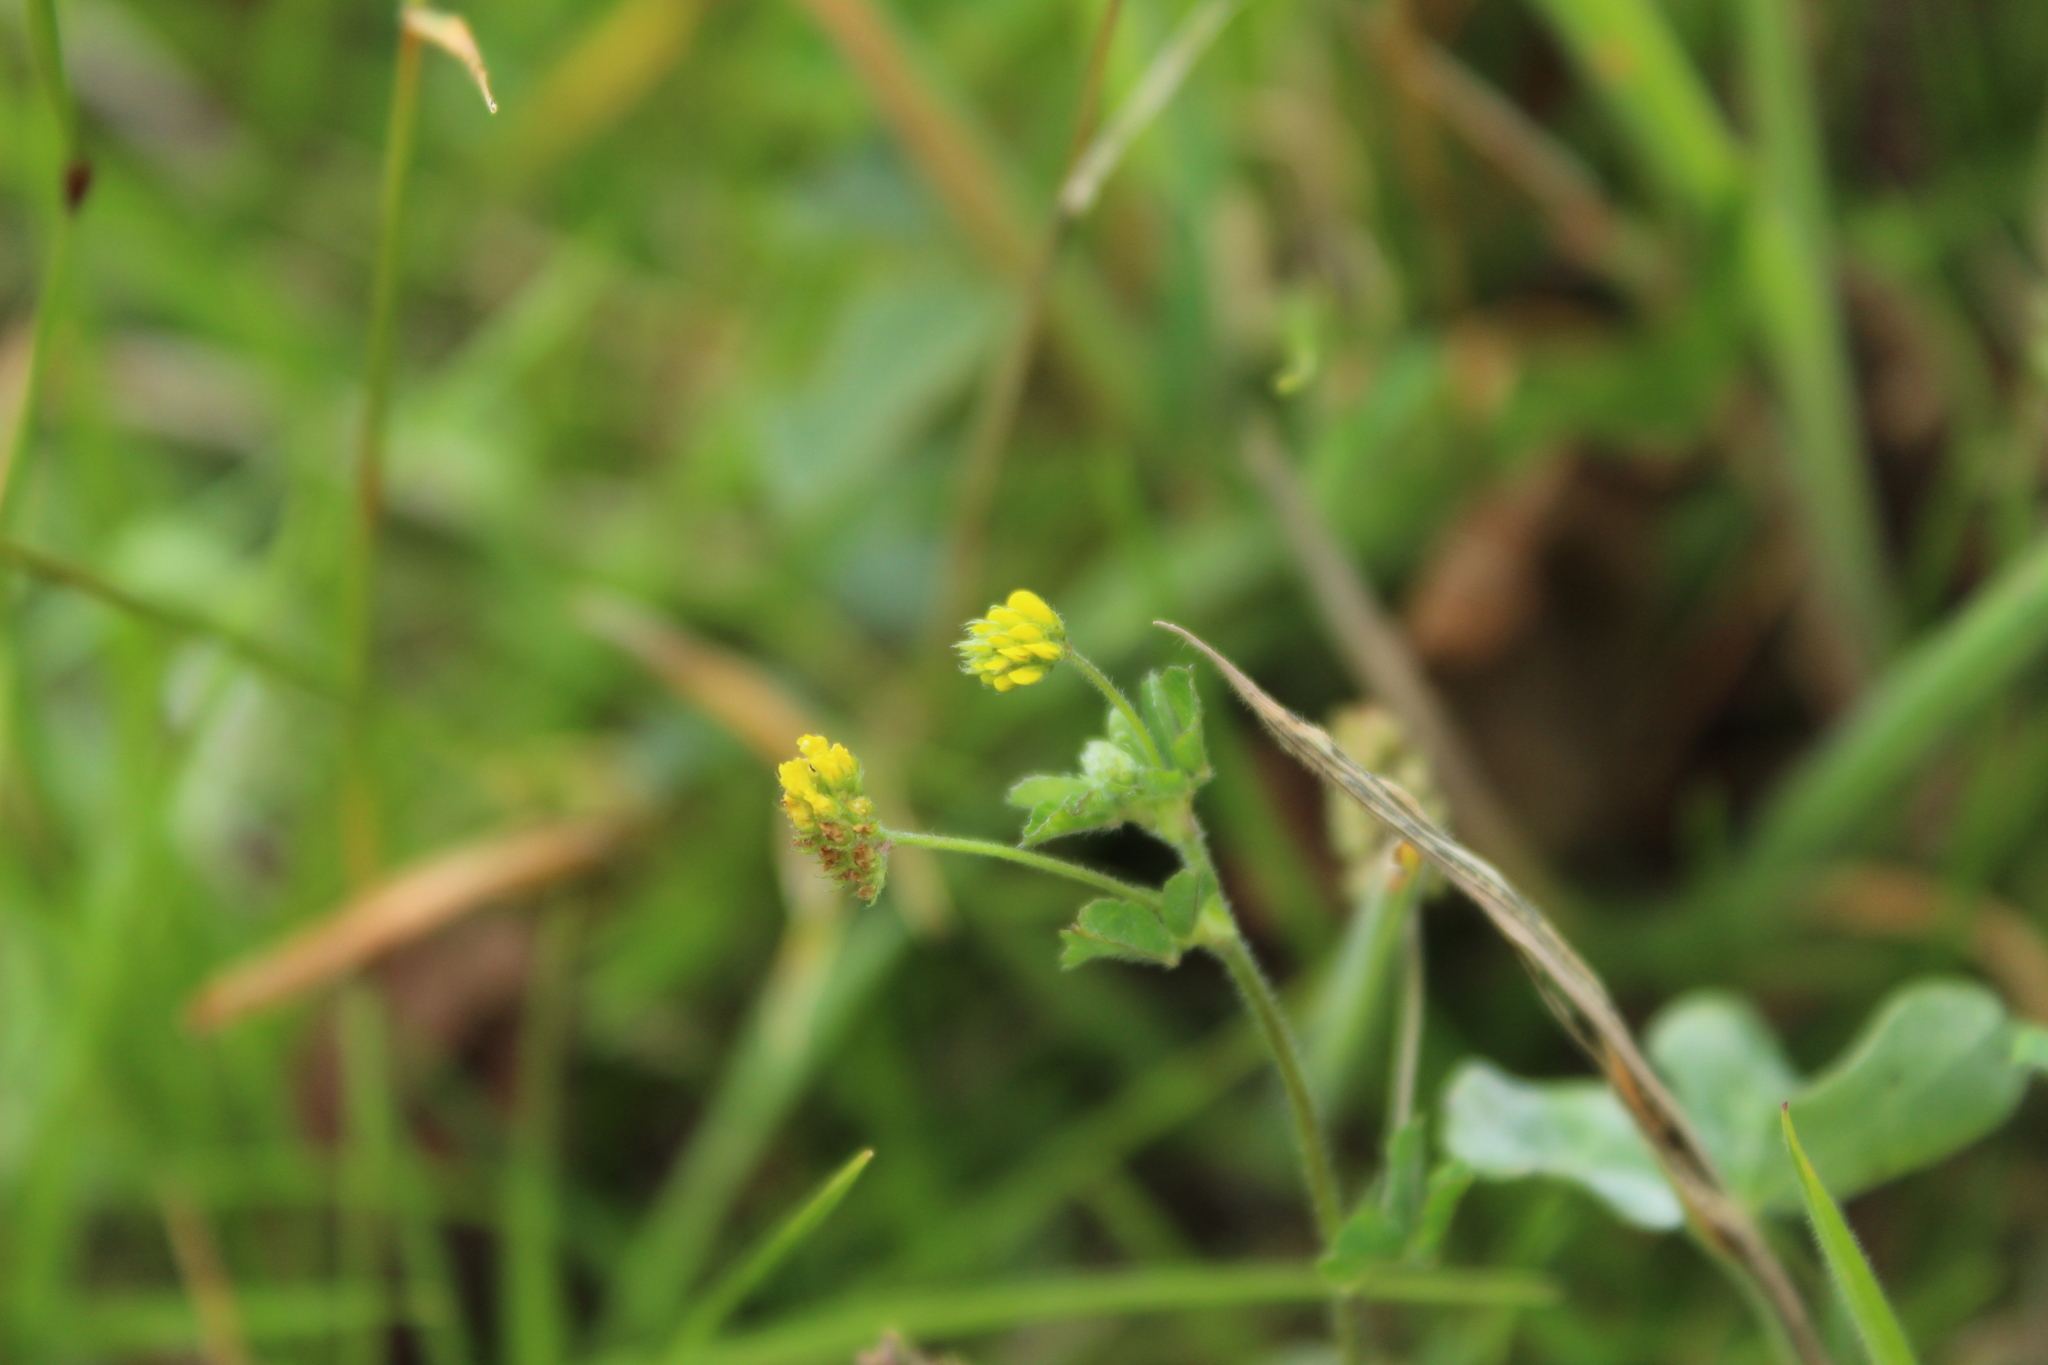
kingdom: Plantae
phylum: Tracheophyta
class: Magnoliopsida
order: Fabales
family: Fabaceae
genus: Medicago
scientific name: Medicago lupulina
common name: Black medick
